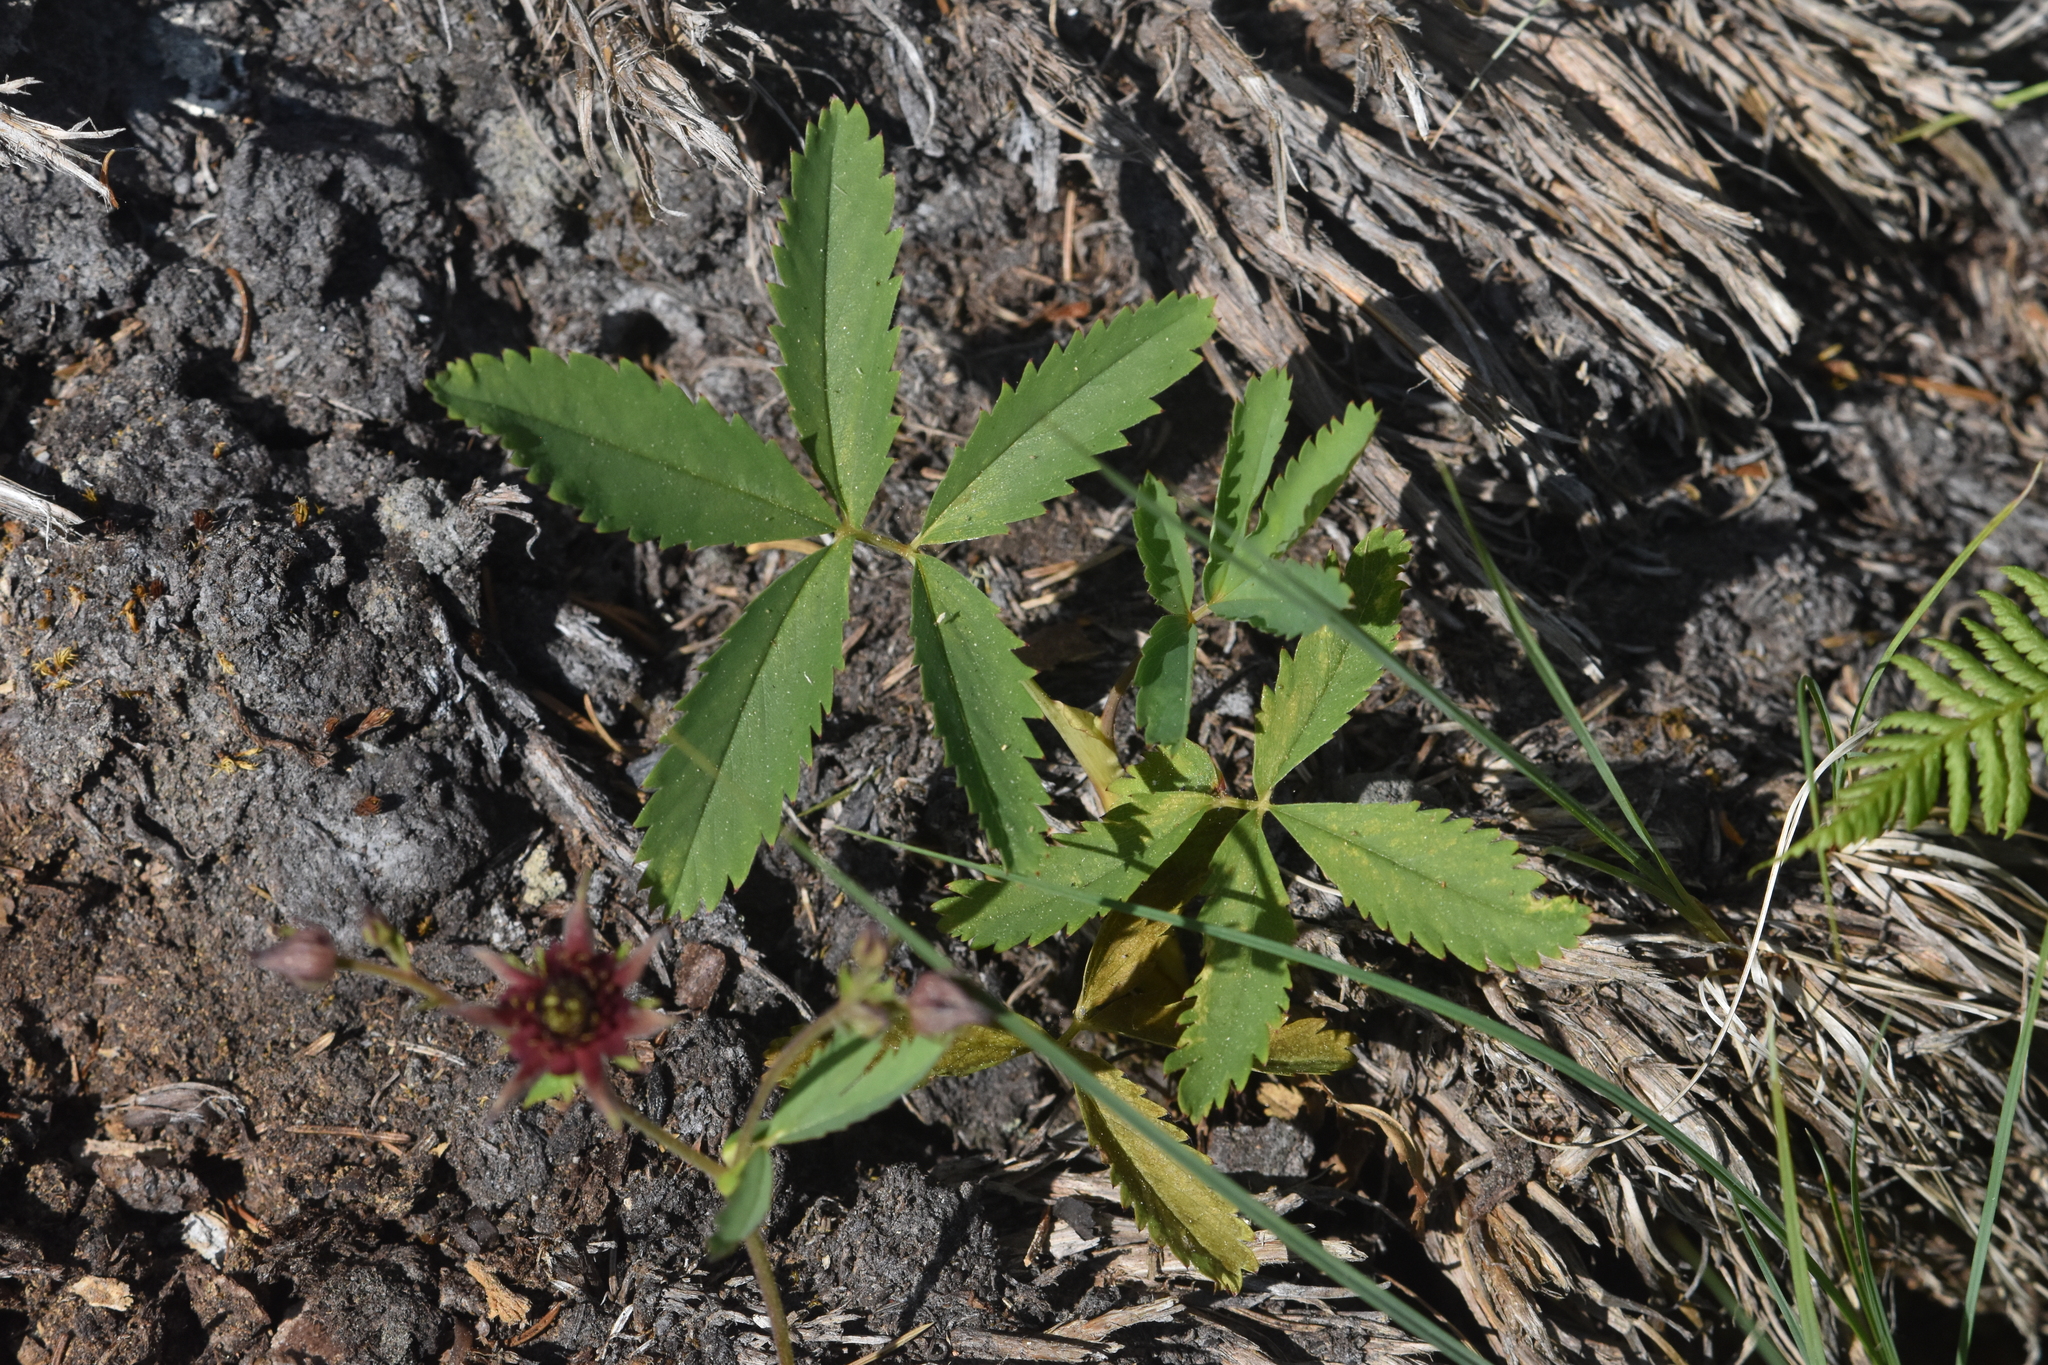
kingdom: Plantae
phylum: Tracheophyta
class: Magnoliopsida
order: Rosales
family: Rosaceae
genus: Comarum
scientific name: Comarum palustre
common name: Marsh cinquefoil
